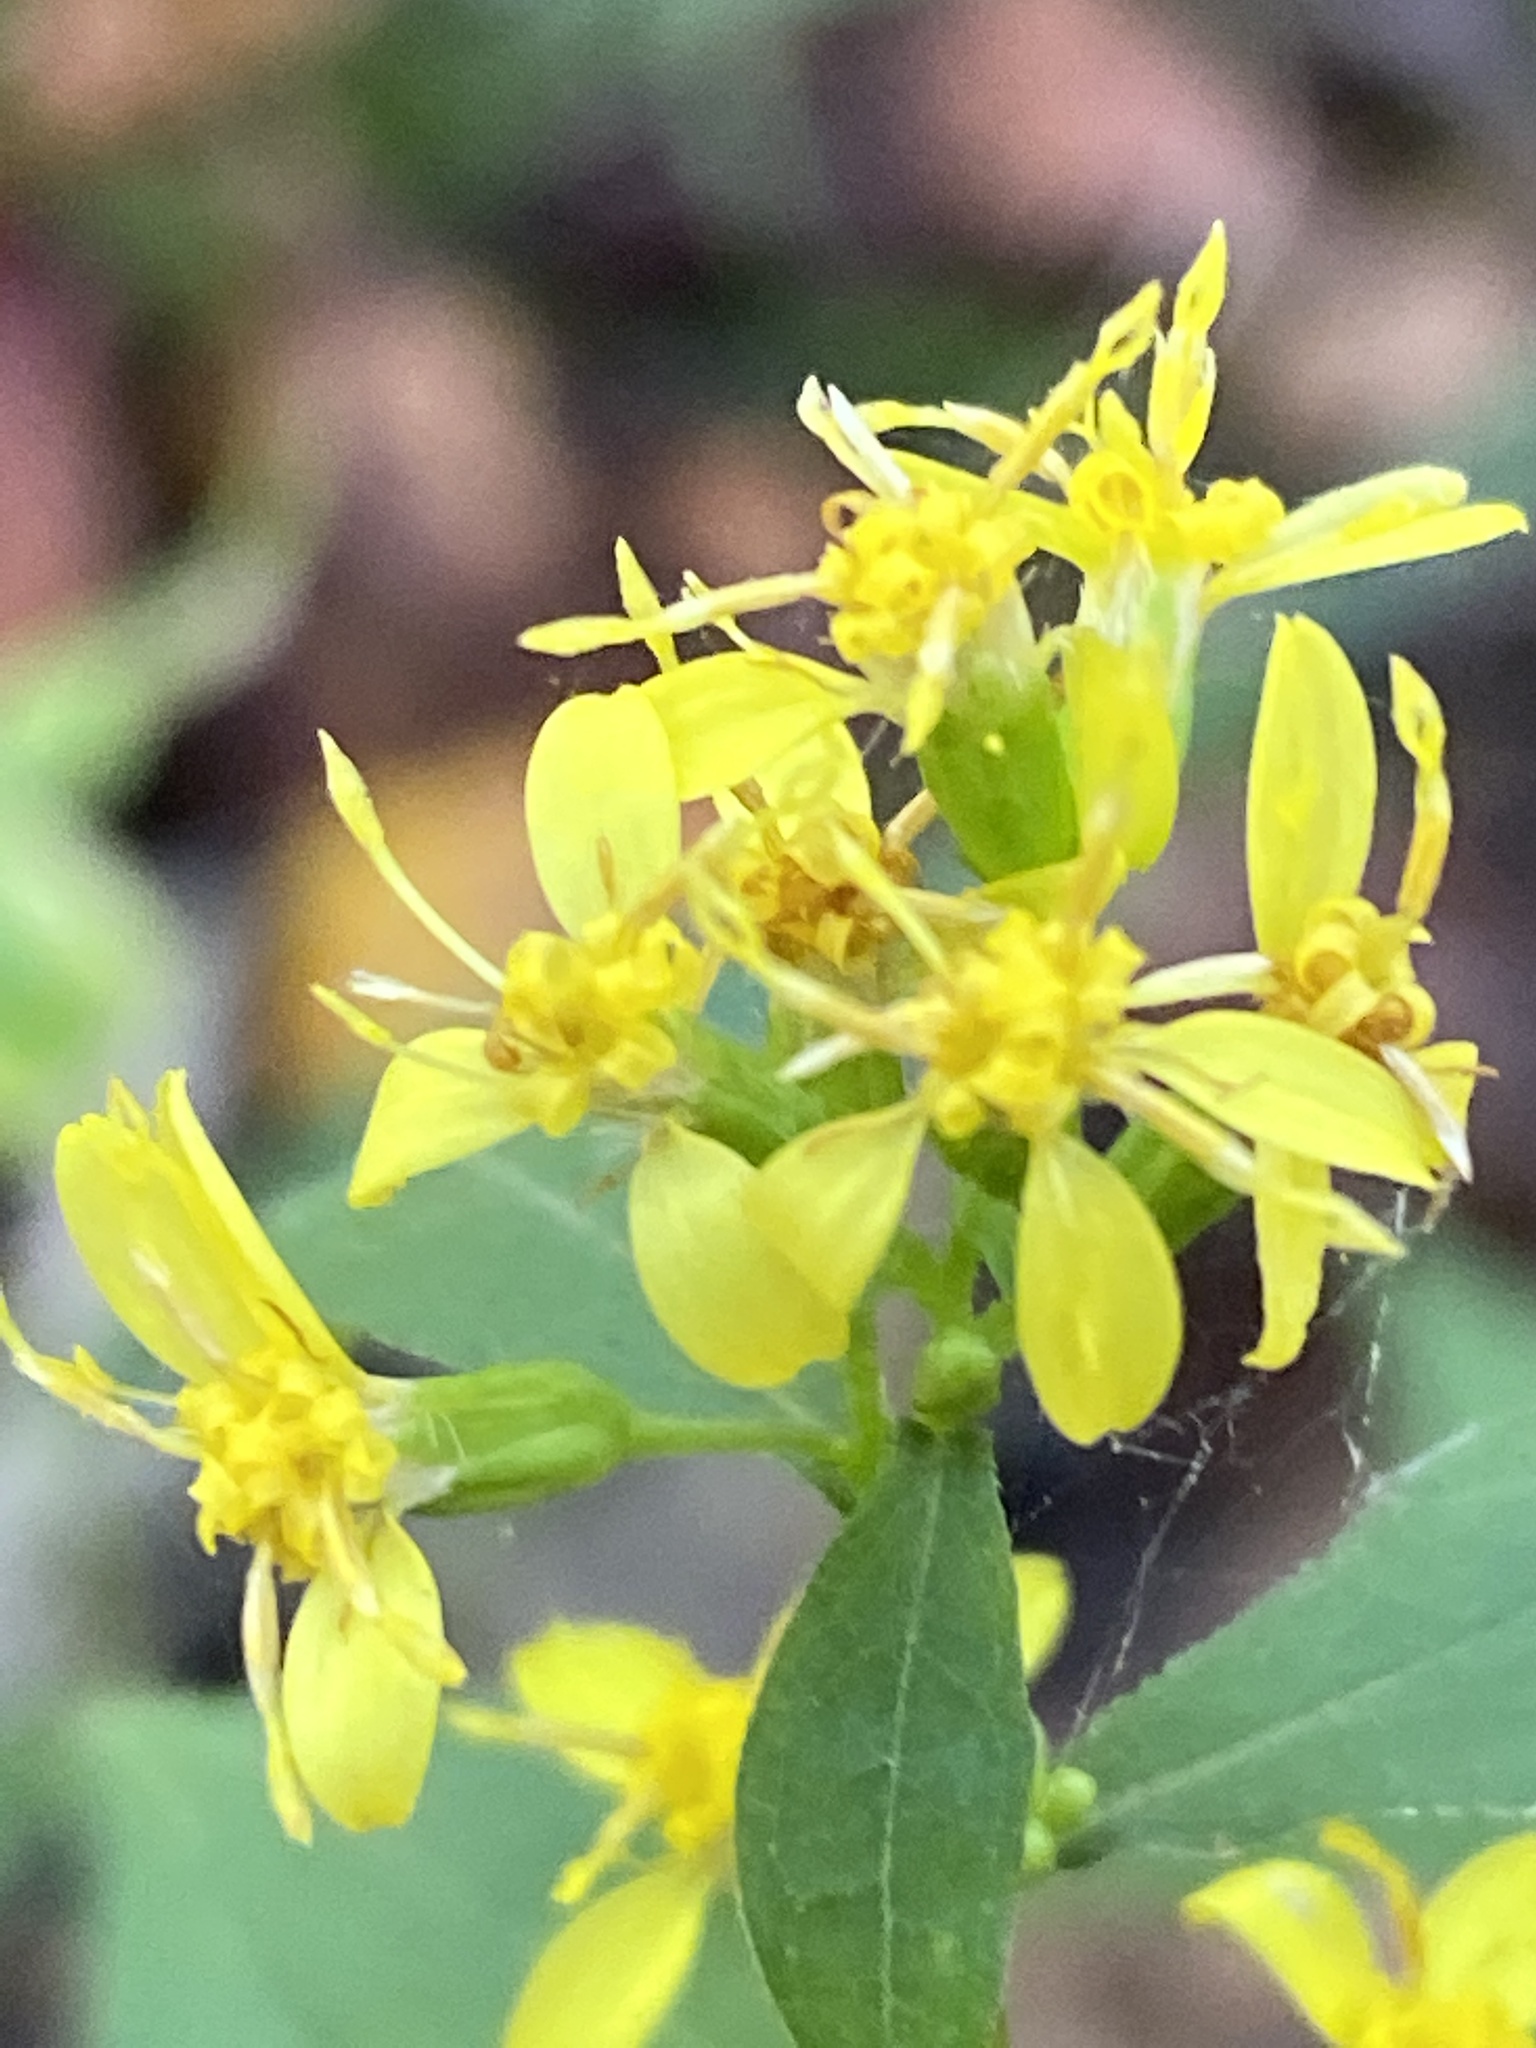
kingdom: Plantae
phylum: Tracheophyta
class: Magnoliopsida
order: Asterales
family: Asteraceae
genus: Solidago
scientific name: Solidago caesia
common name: Woodland goldenrod
